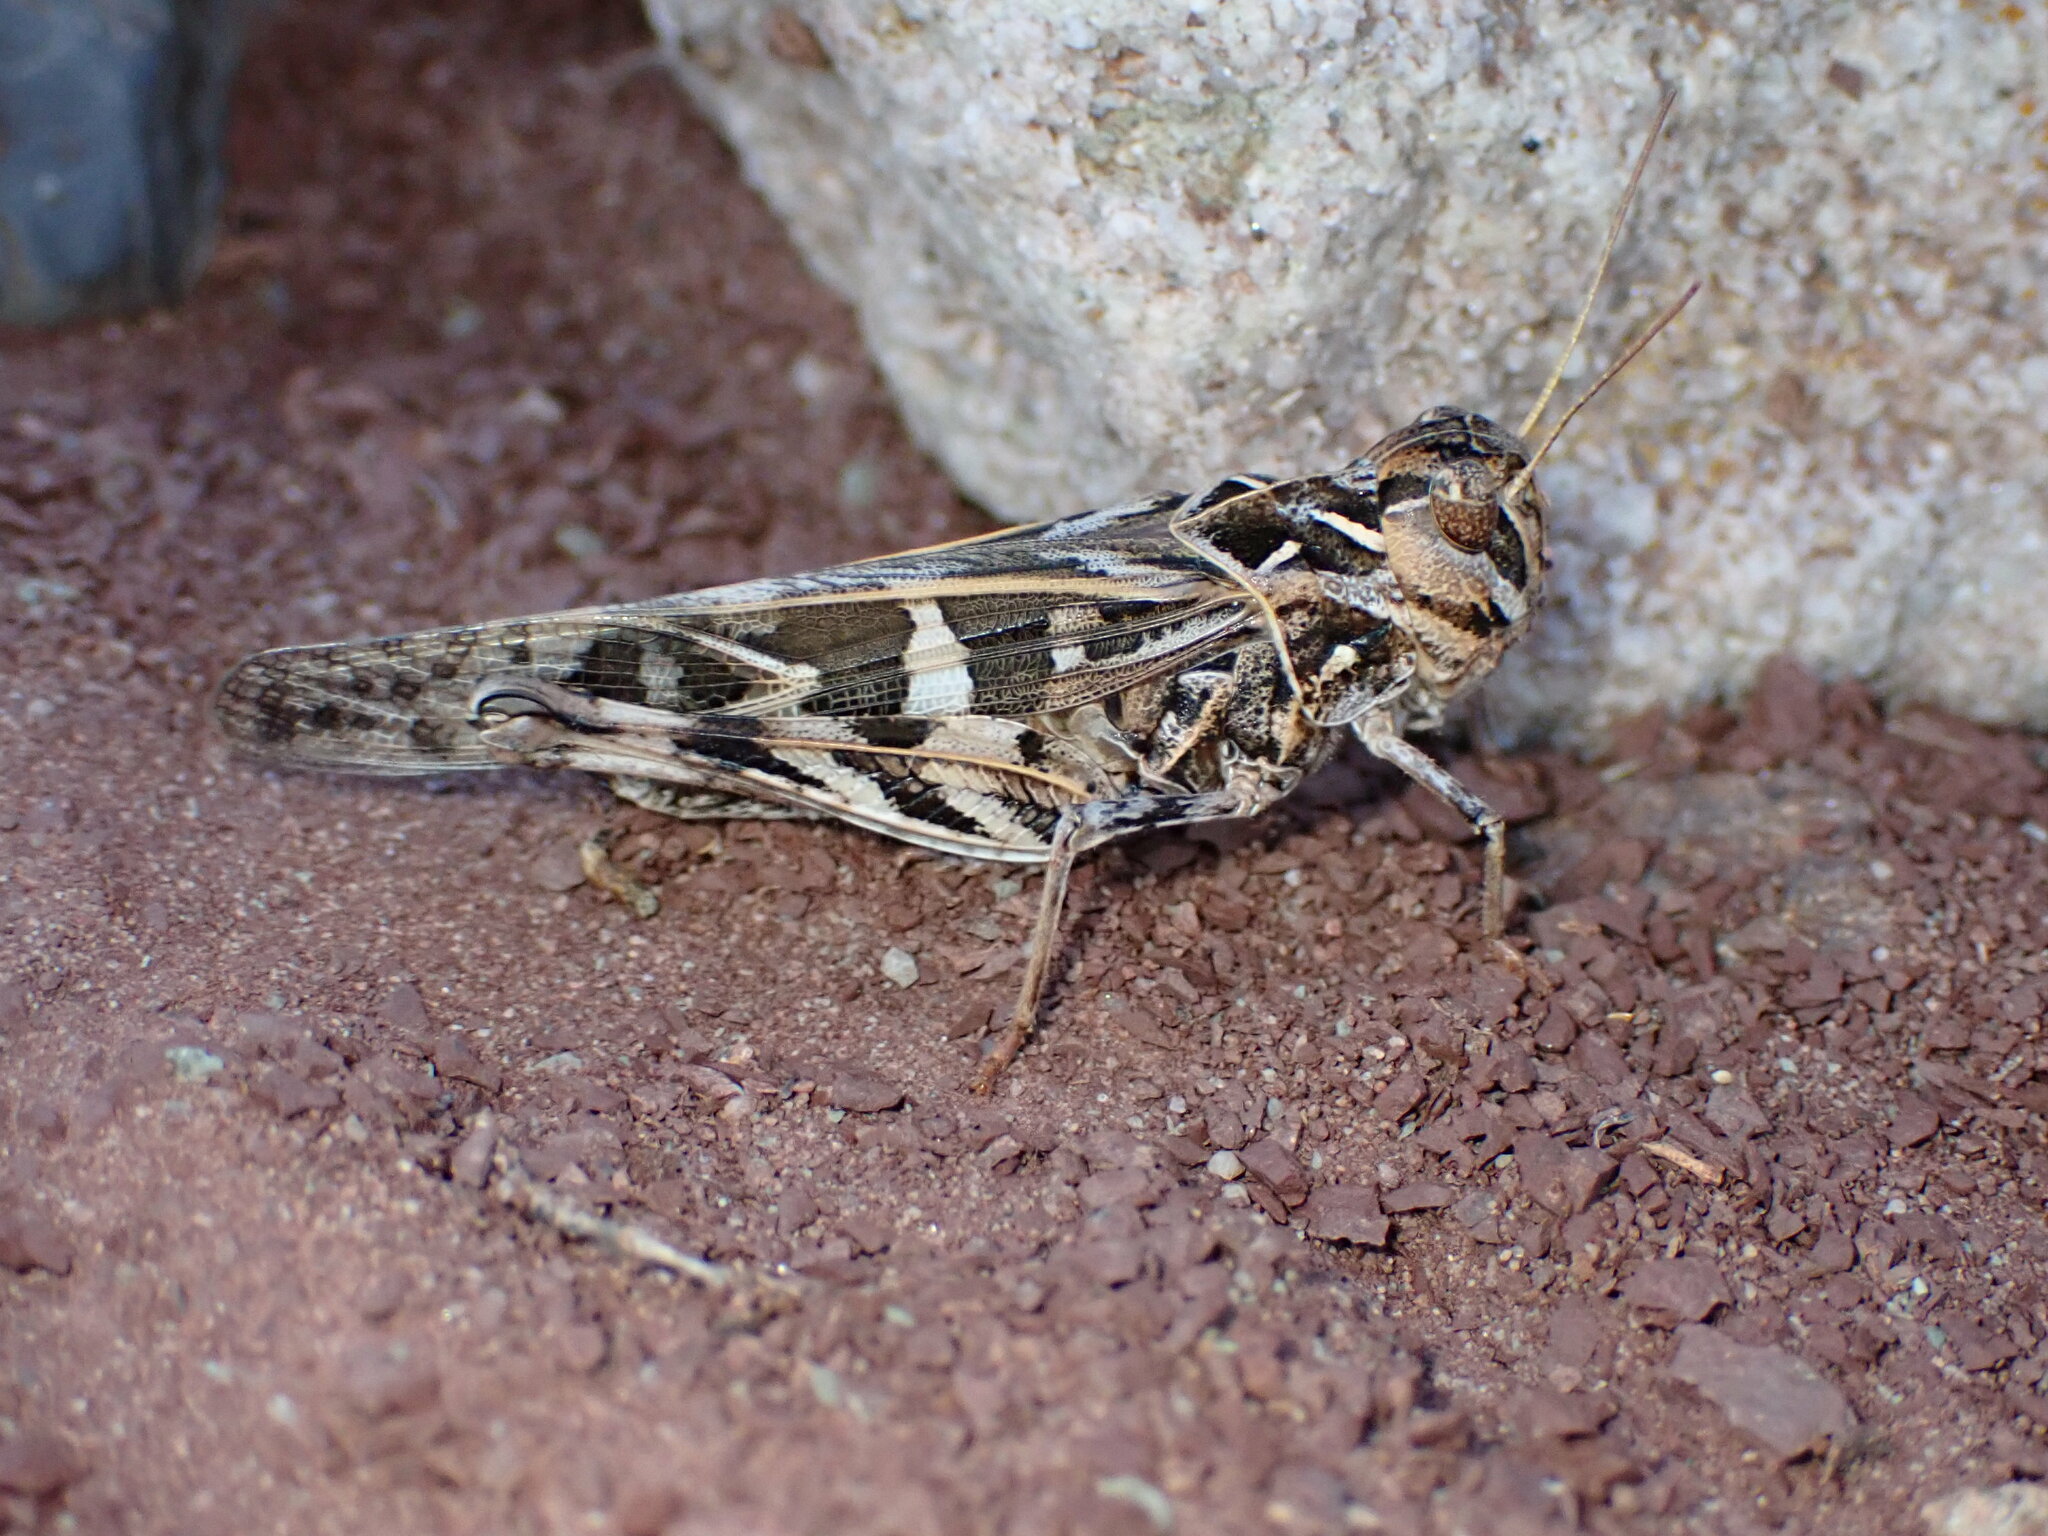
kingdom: Animalia
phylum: Arthropoda
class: Insecta
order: Orthoptera
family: Acrididae
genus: Oedaleus
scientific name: Oedaleus decorus
